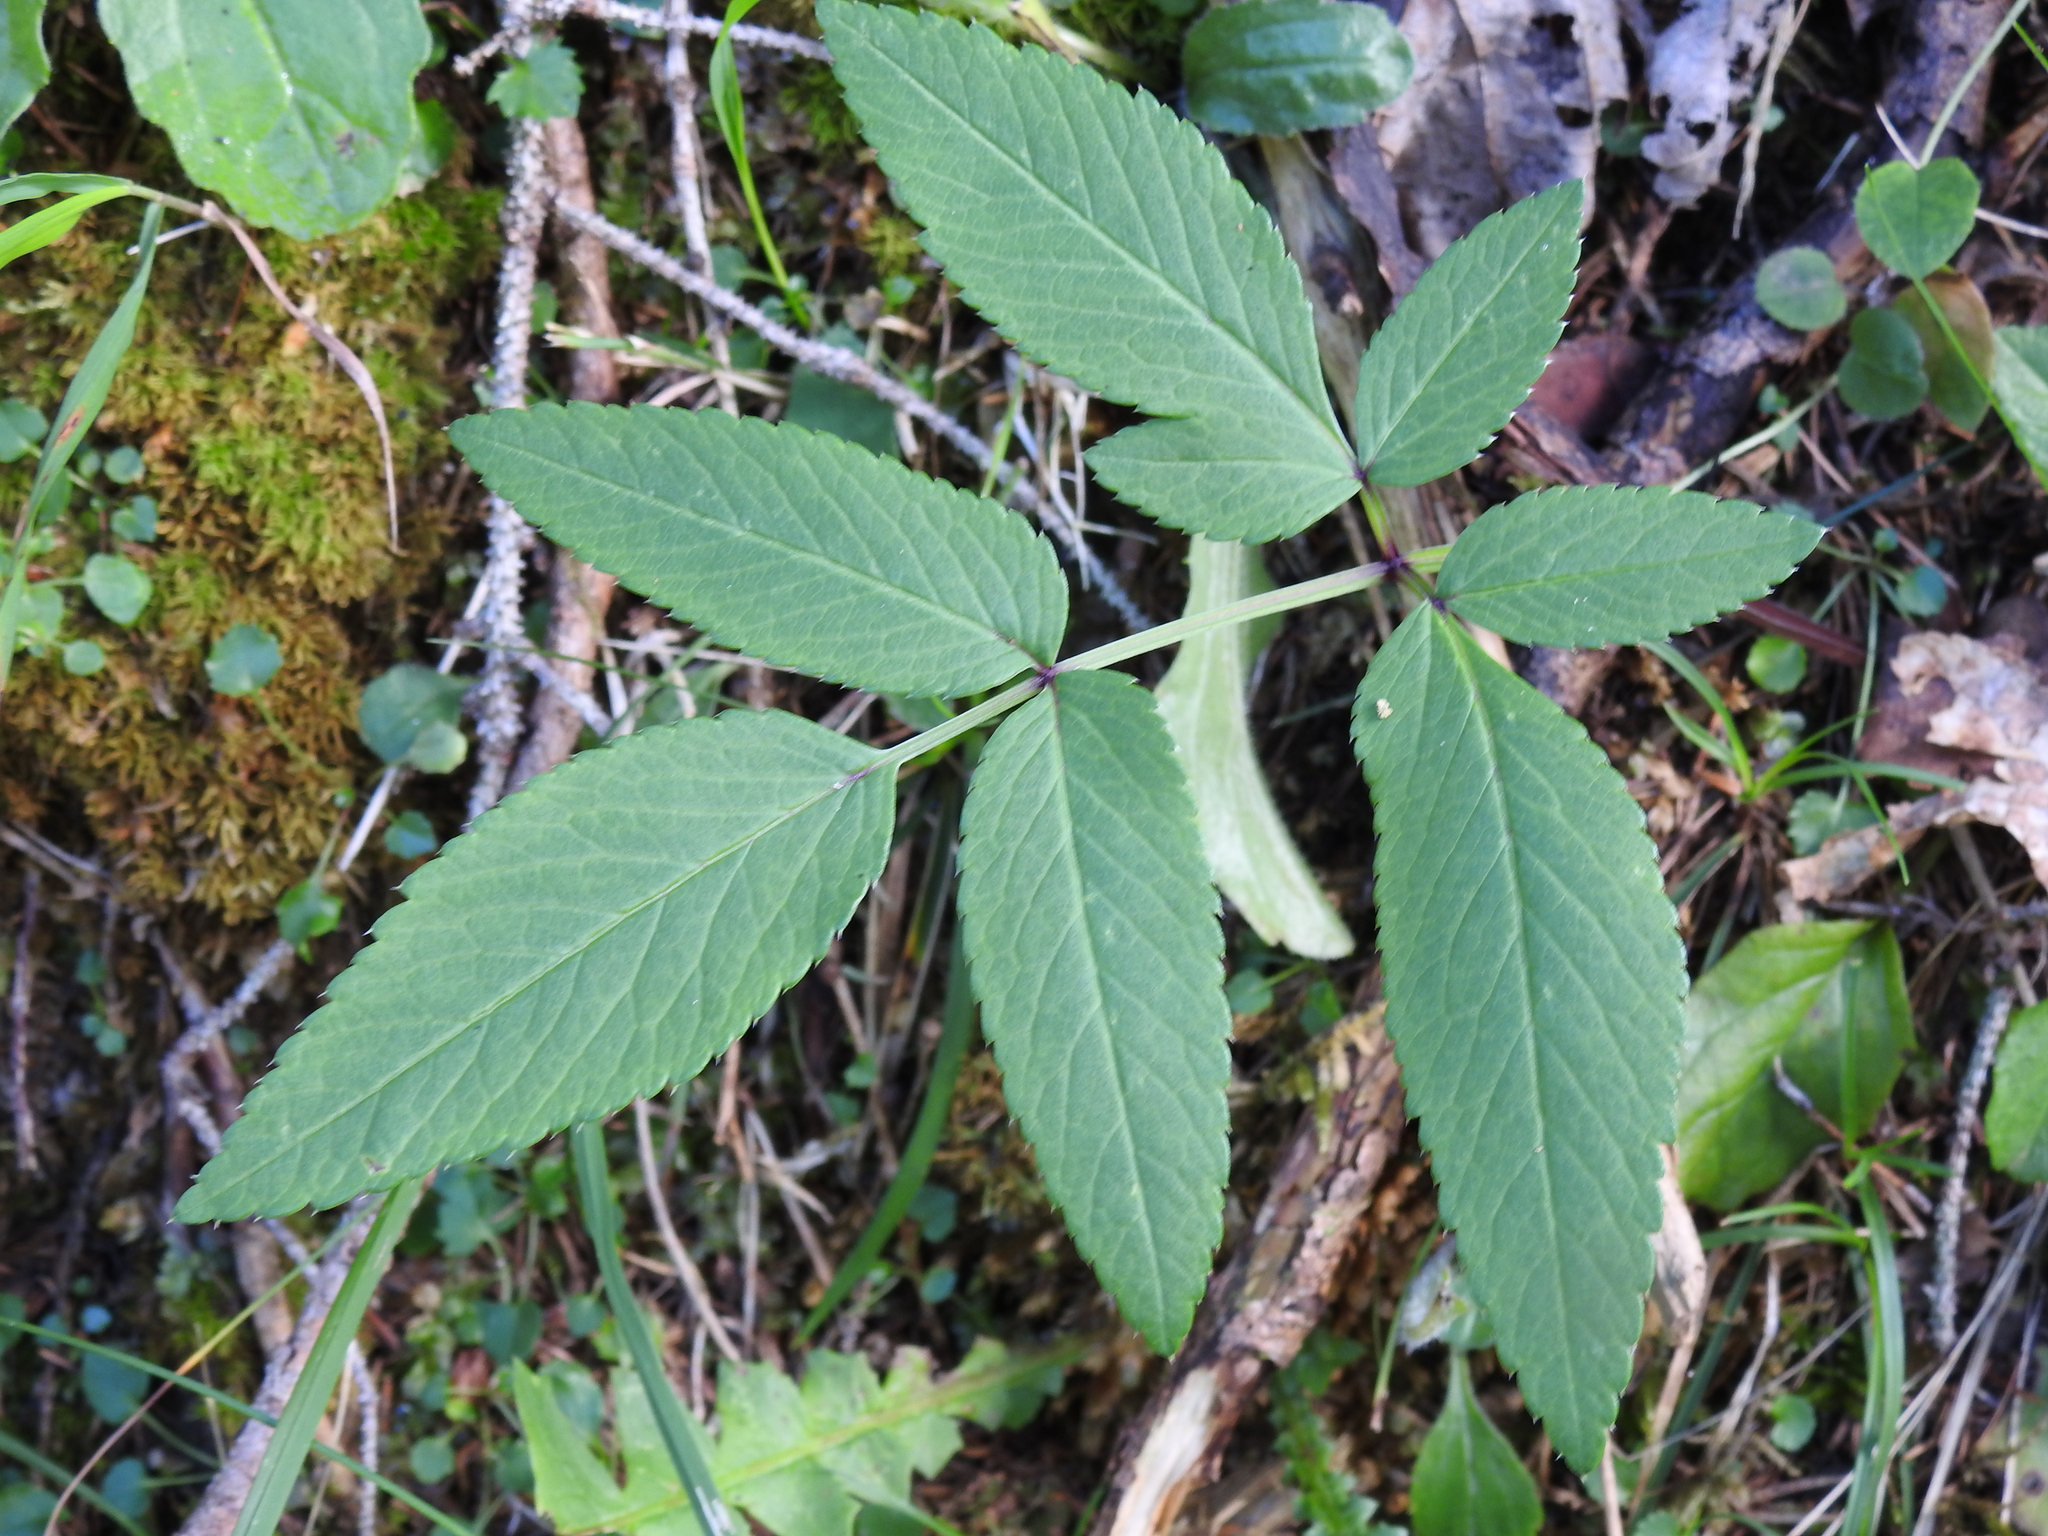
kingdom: Plantae
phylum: Tracheophyta
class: Magnoliopsida
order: Apiales
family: Apiaceae
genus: Angelica
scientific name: Angelica sylvestris
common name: Wild angelica
